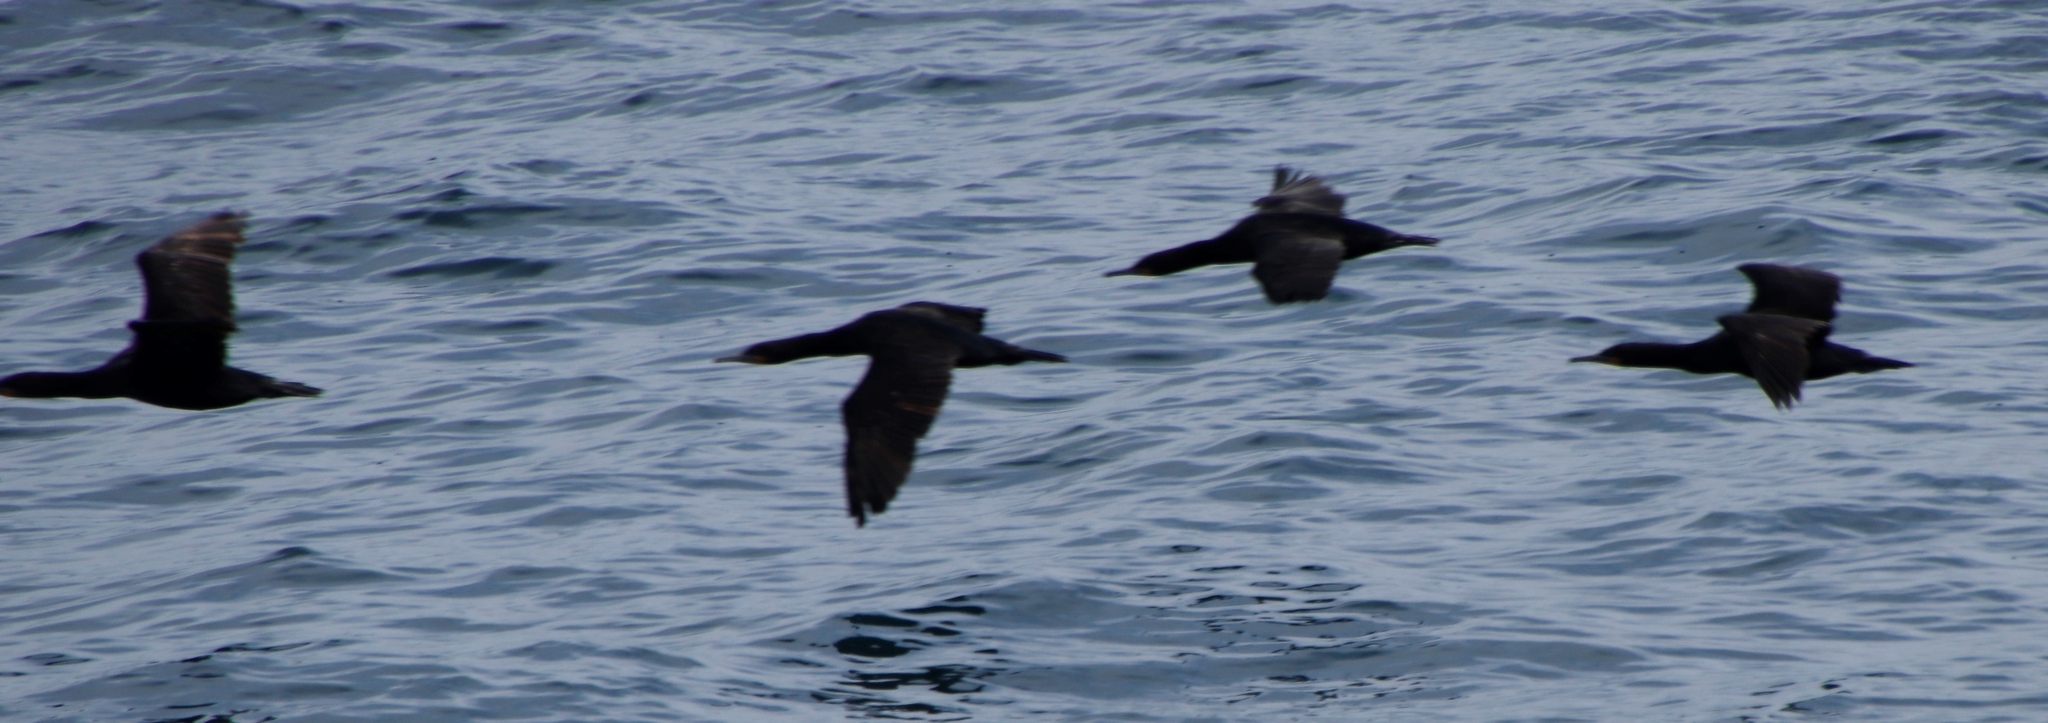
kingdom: Animalia
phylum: Chordata
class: Aves
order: Suliformes
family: Phalacrocoracidae
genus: Phalacrocorax
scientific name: Phalacrocorax capensis
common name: Cape cormorant
